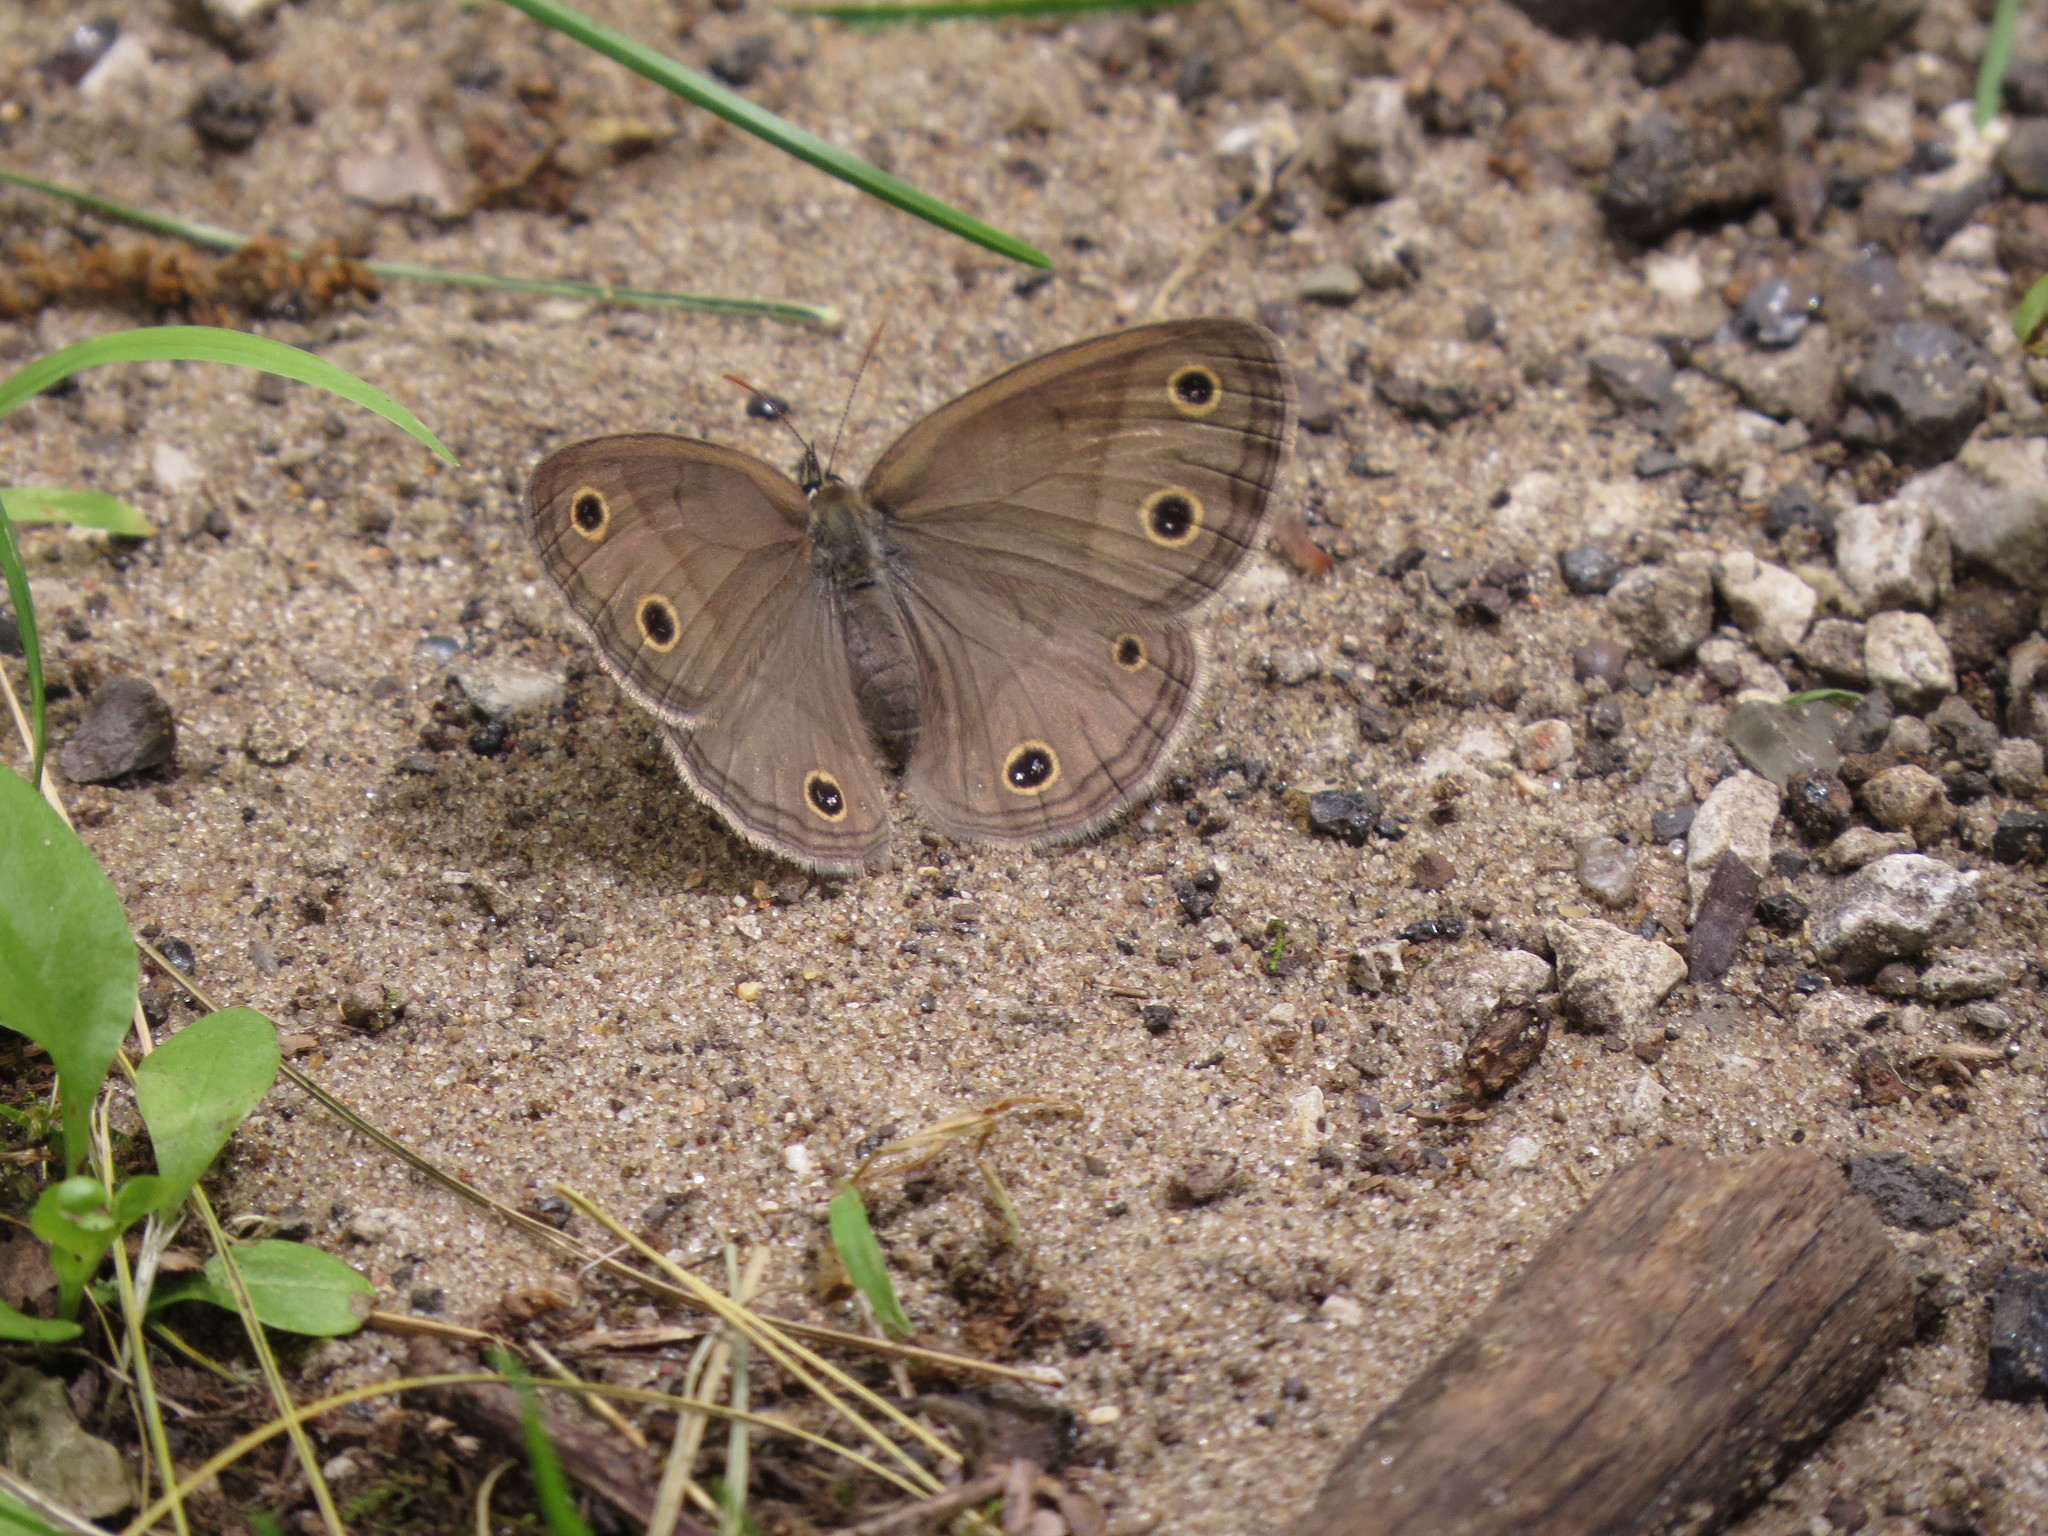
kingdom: Animalia
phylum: Arthropoda
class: Insecta
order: Lepidoptera
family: Nymphalidae
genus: Euptychia
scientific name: Euptychia cymela
